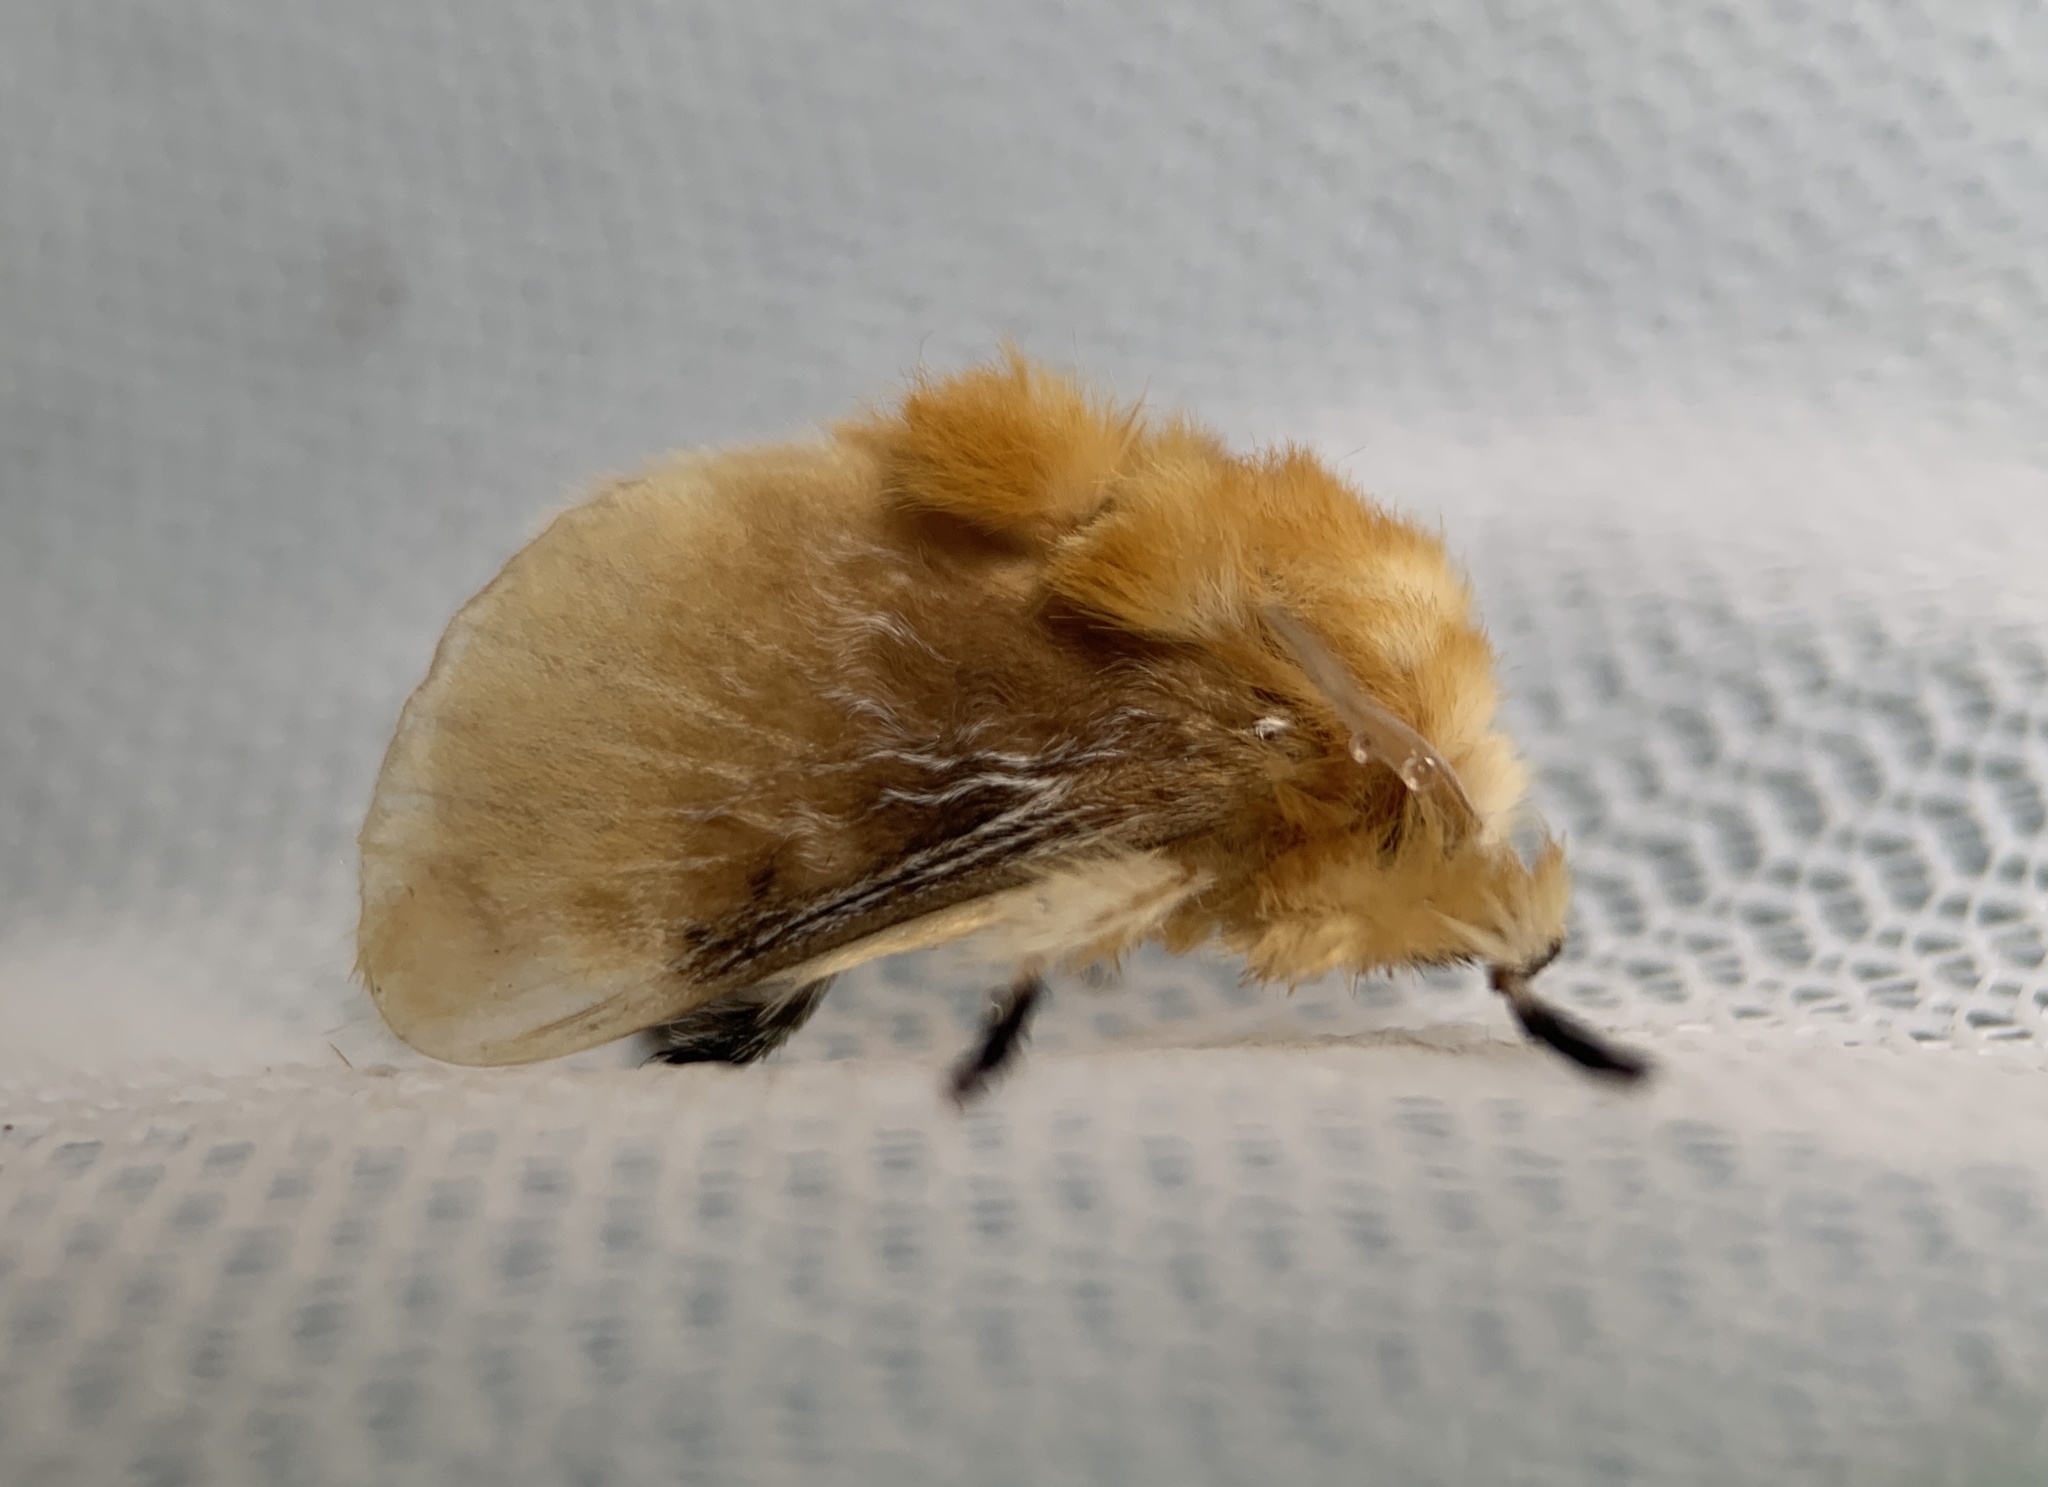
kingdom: Animalia
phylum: Arthropoda
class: Insecta
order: Lepidoptera
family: Megalopygidae
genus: Megalopyge
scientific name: Megalopyge opercularis
